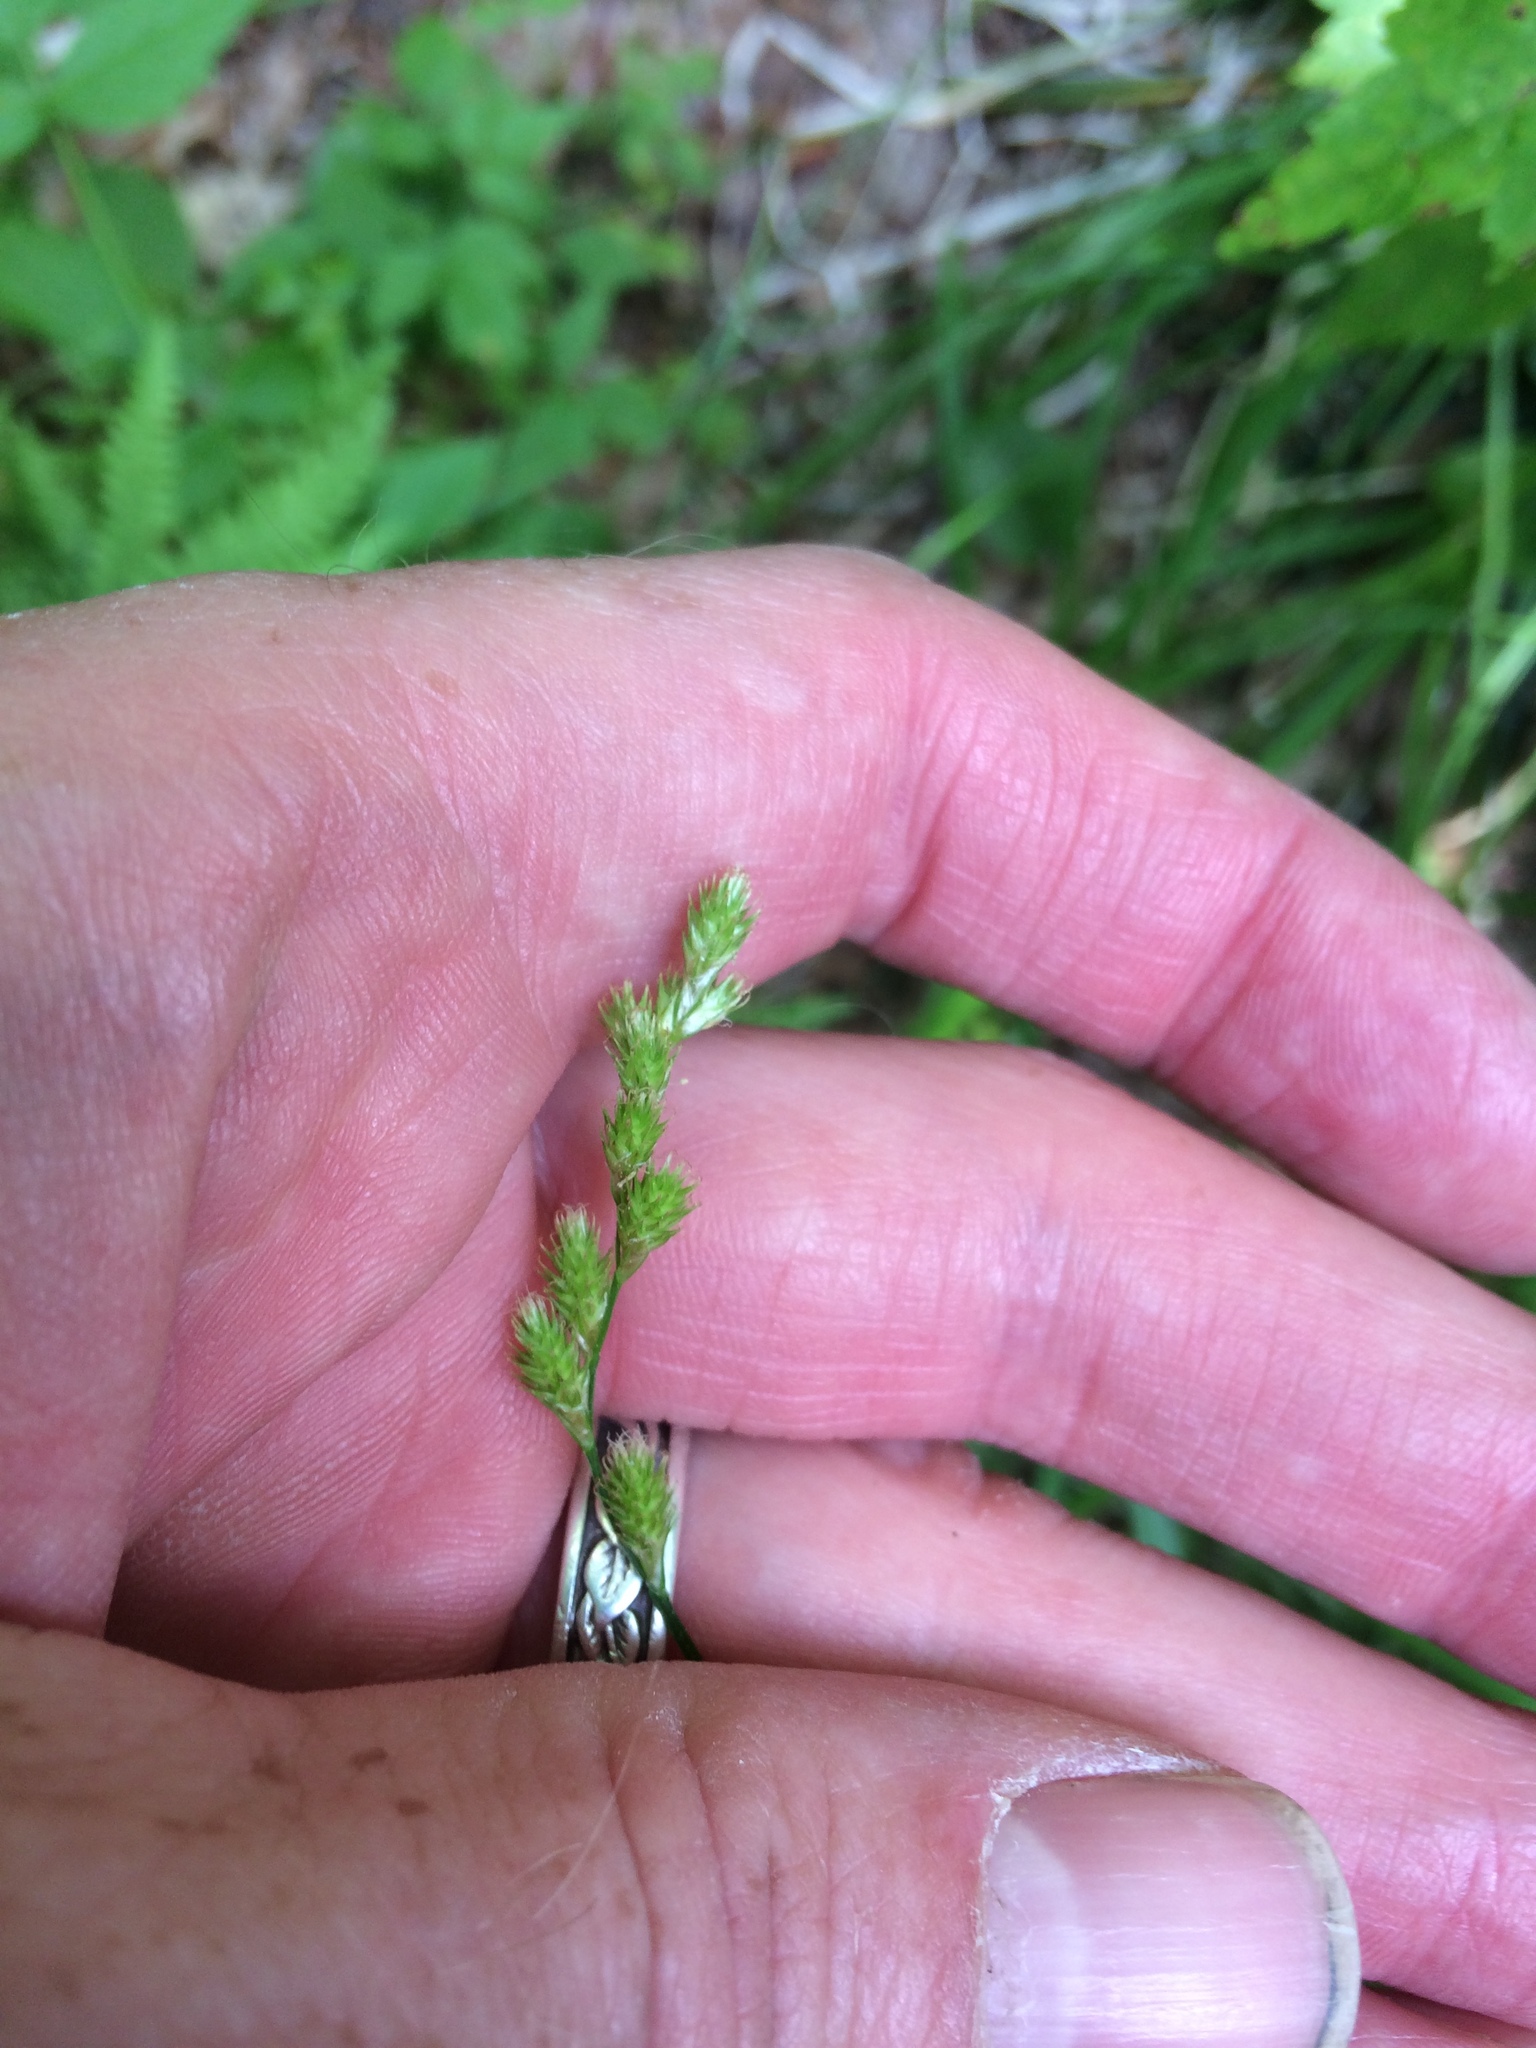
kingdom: Plantae
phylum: Tracheophyta
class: Liliopsida
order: Poales
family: Cyperaceae
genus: Carex
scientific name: Carex
